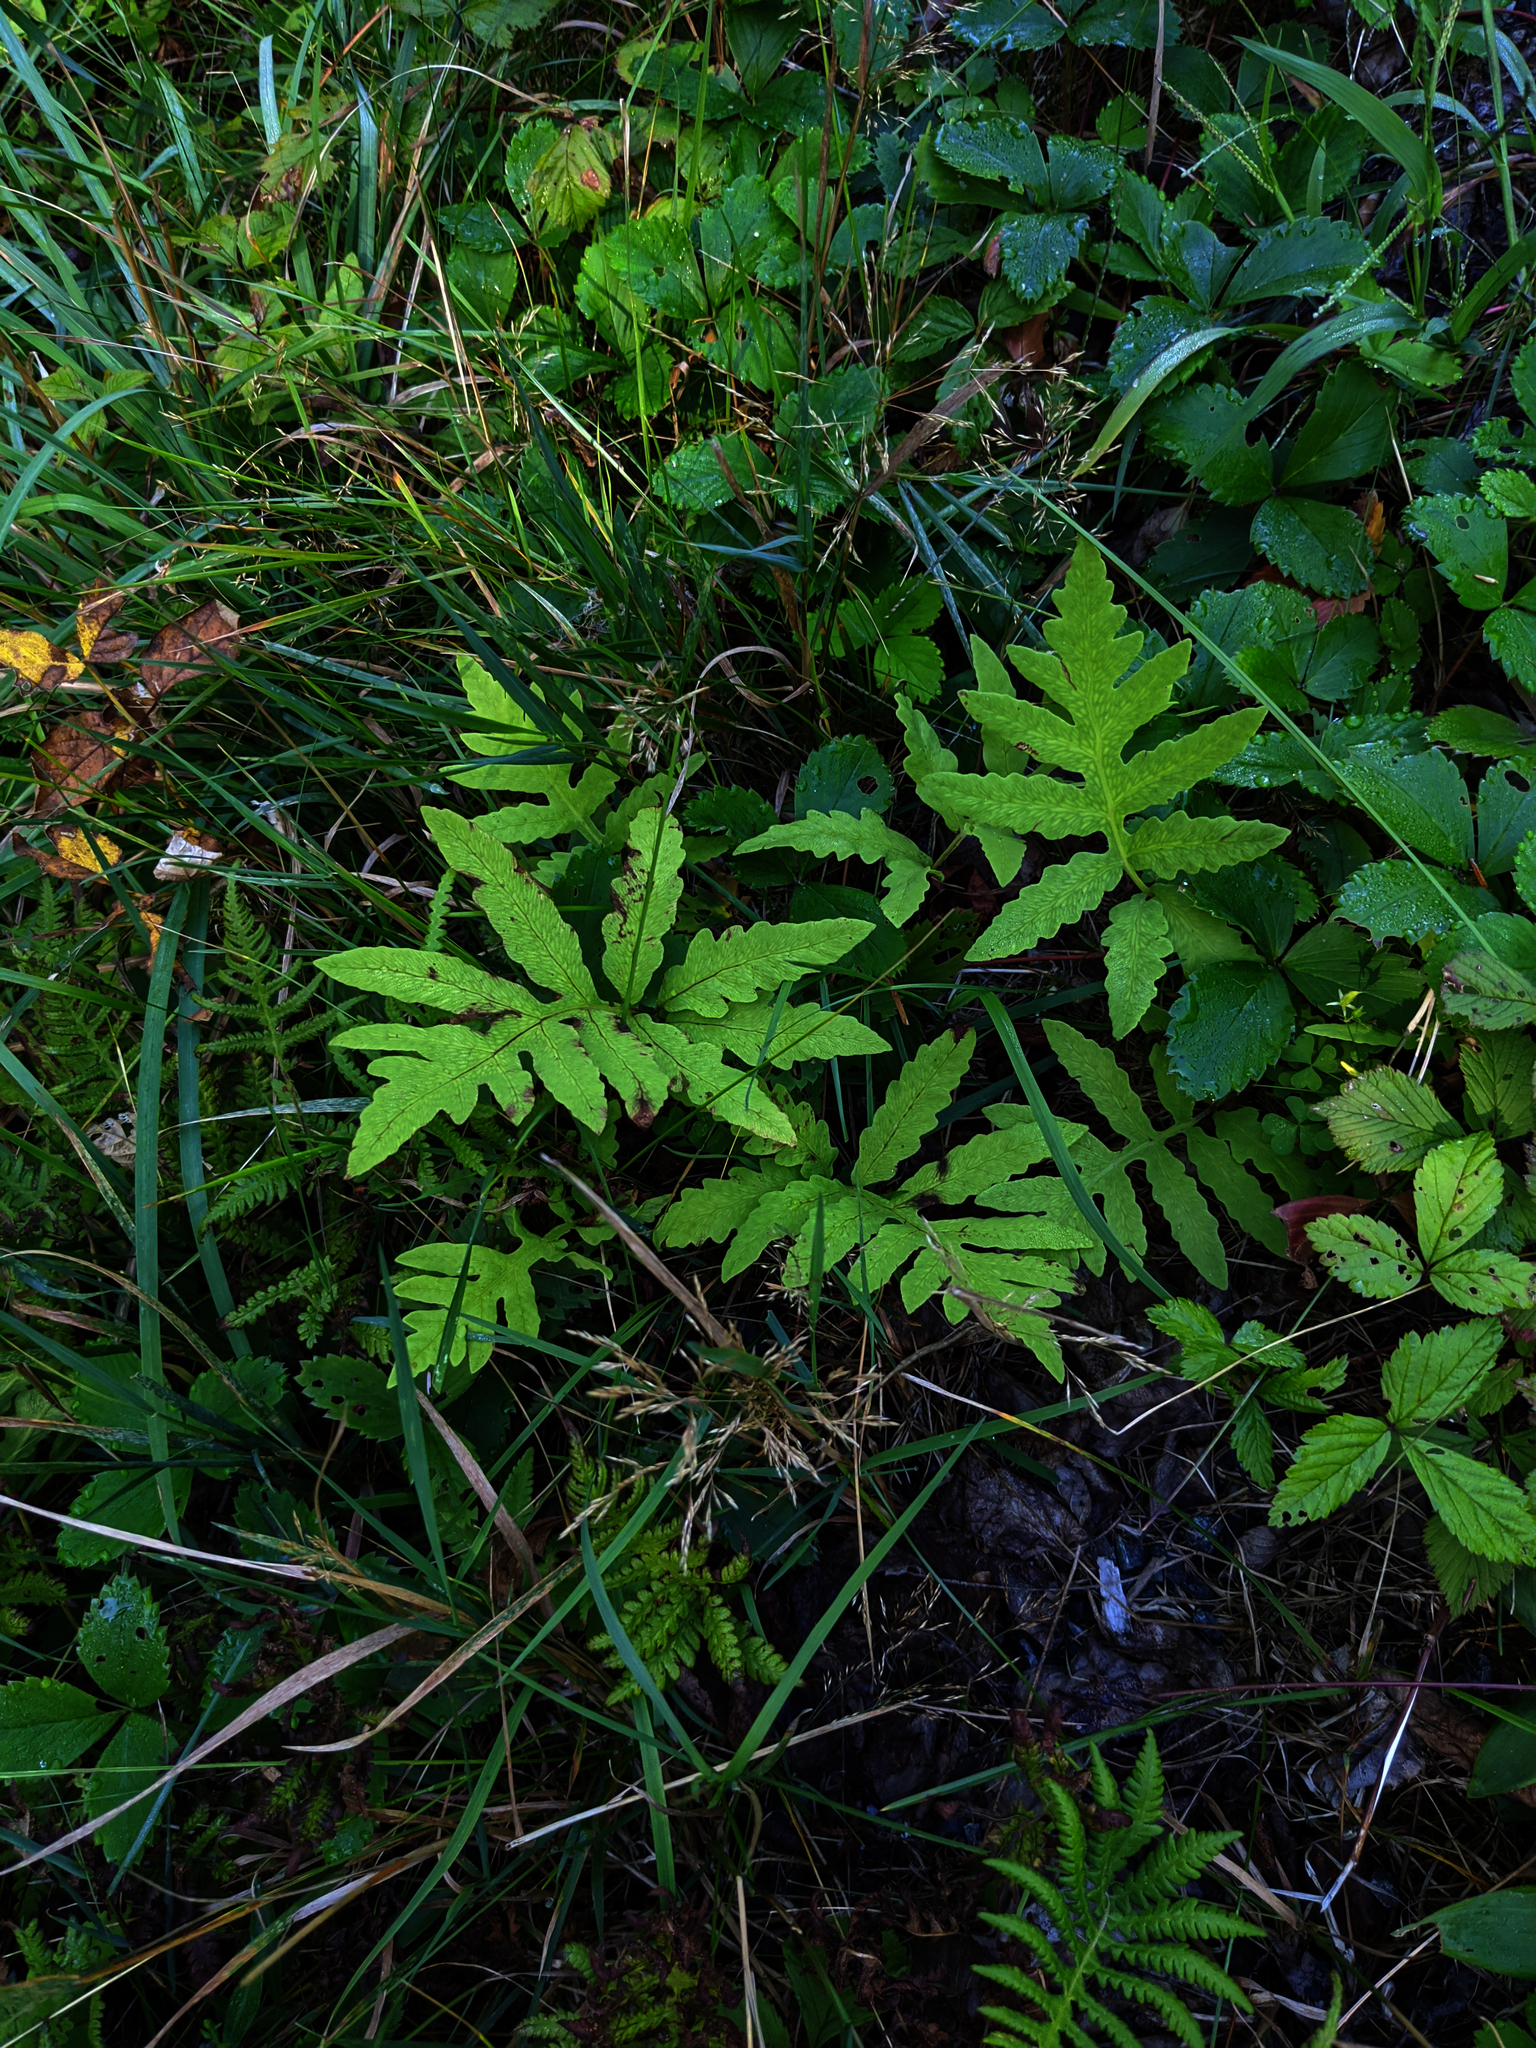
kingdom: Plantae
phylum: Tracheophyta
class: Polypodiopsida
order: Polypodiales
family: Onocleaceae
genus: Onoclea
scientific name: Onoclea sensibilis
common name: Sensitive fern
